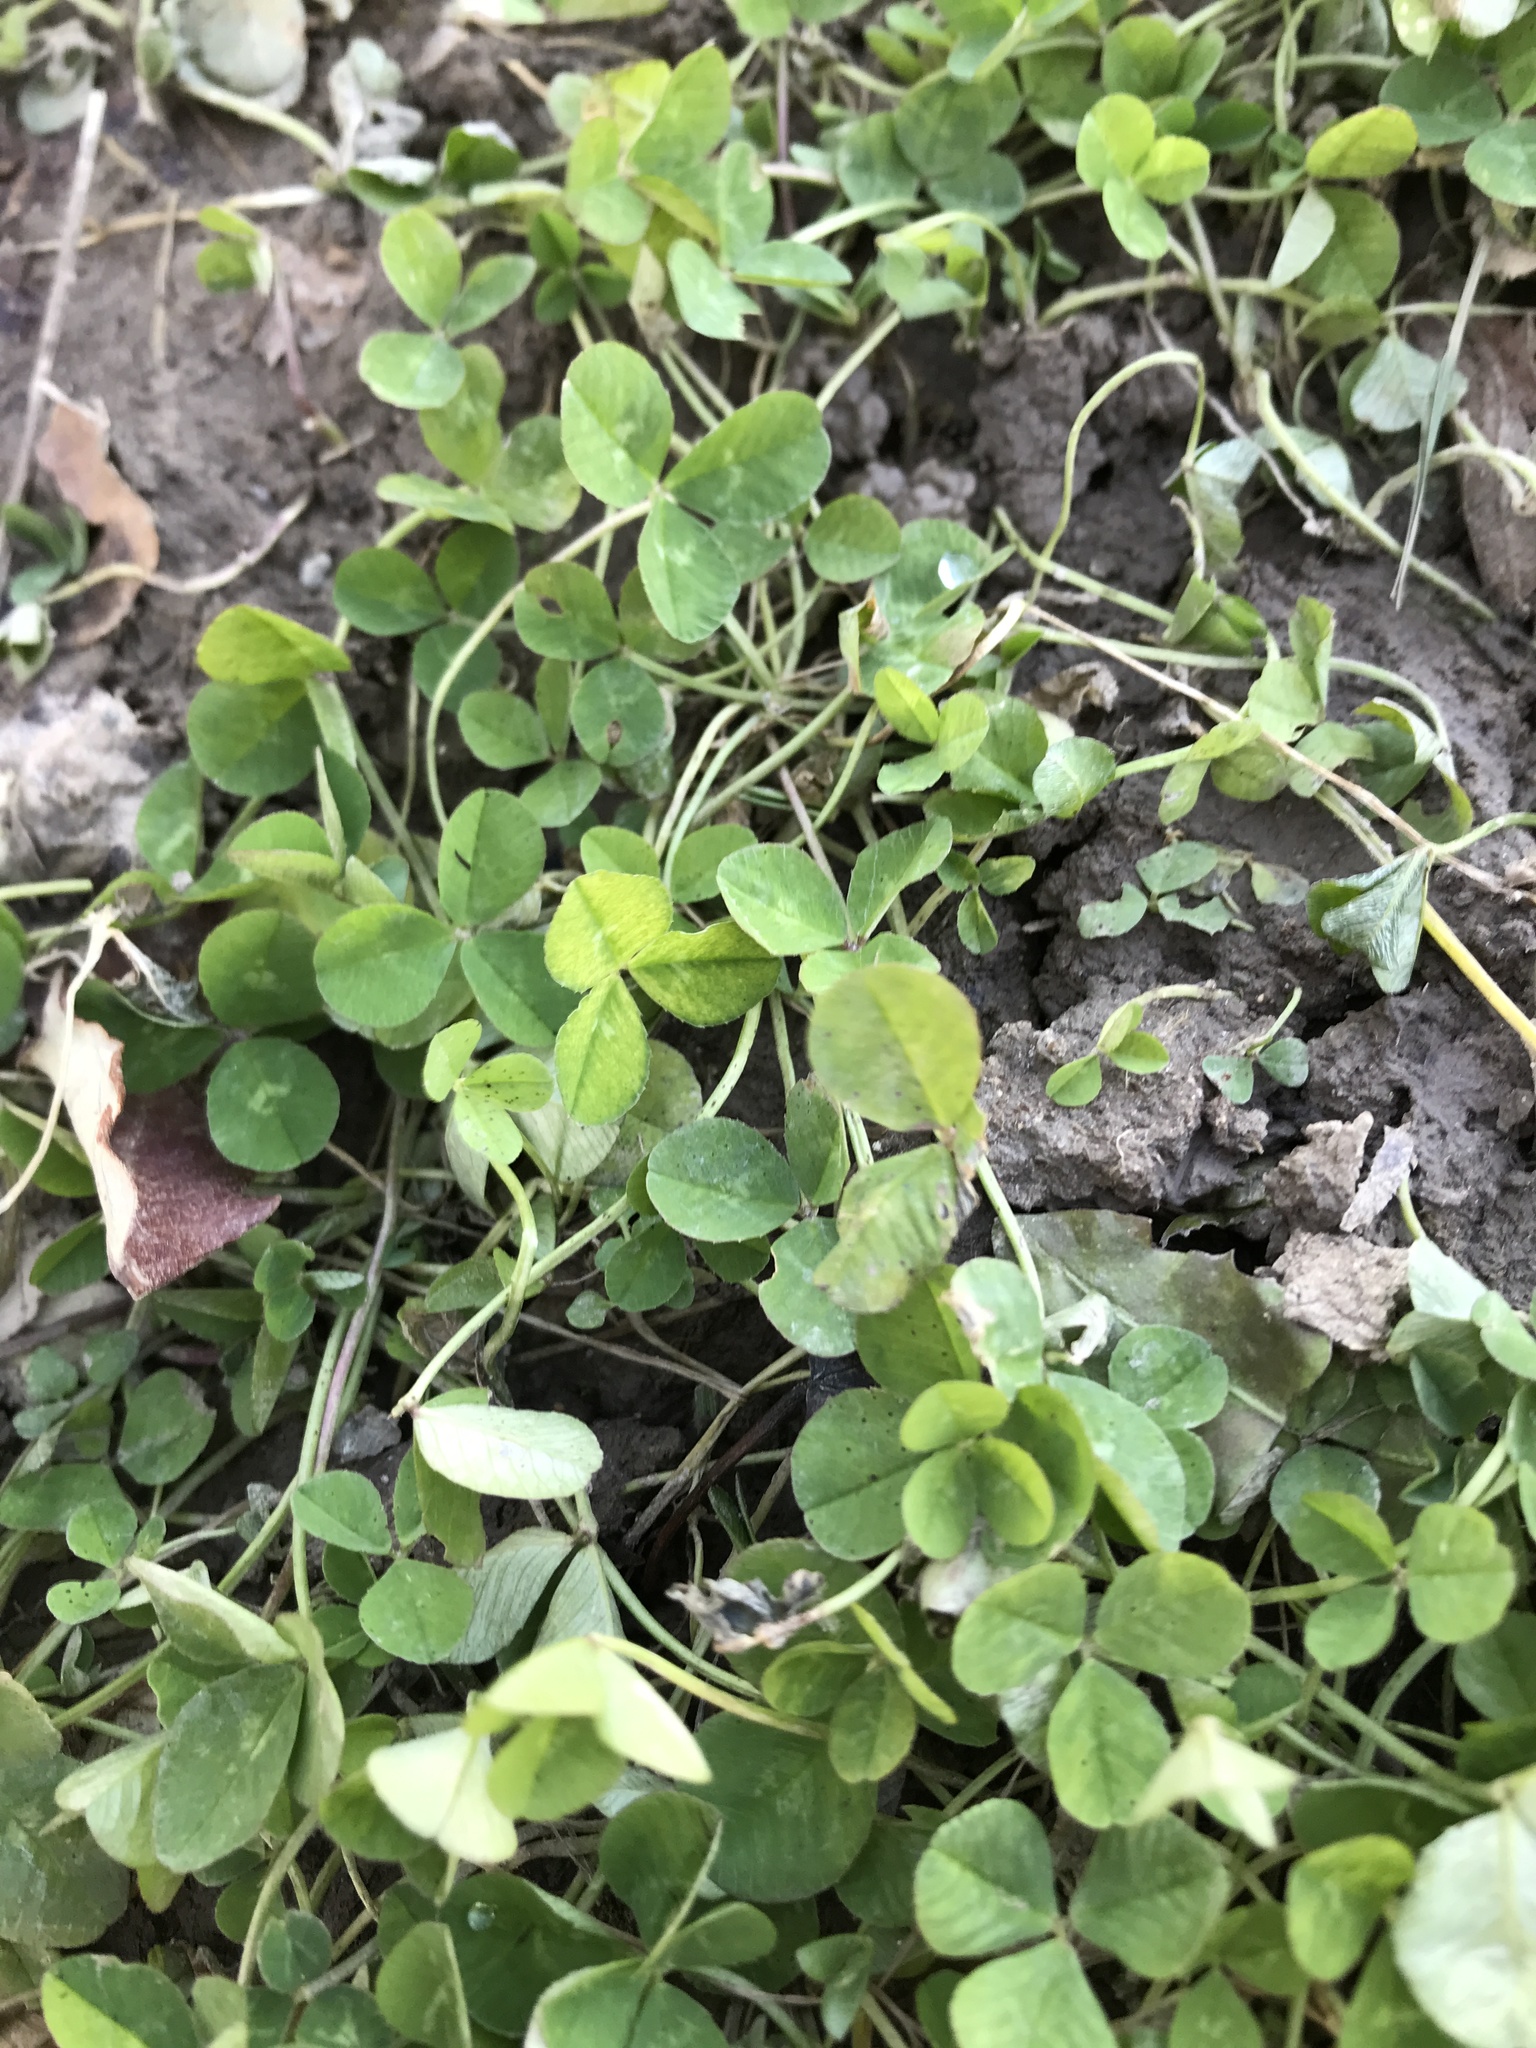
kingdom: Plantae
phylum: Tracheophyta
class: Magnoliopsida
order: Fabales
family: Fabaceae
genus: Trifolium
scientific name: Trifolium repens
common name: White clover
